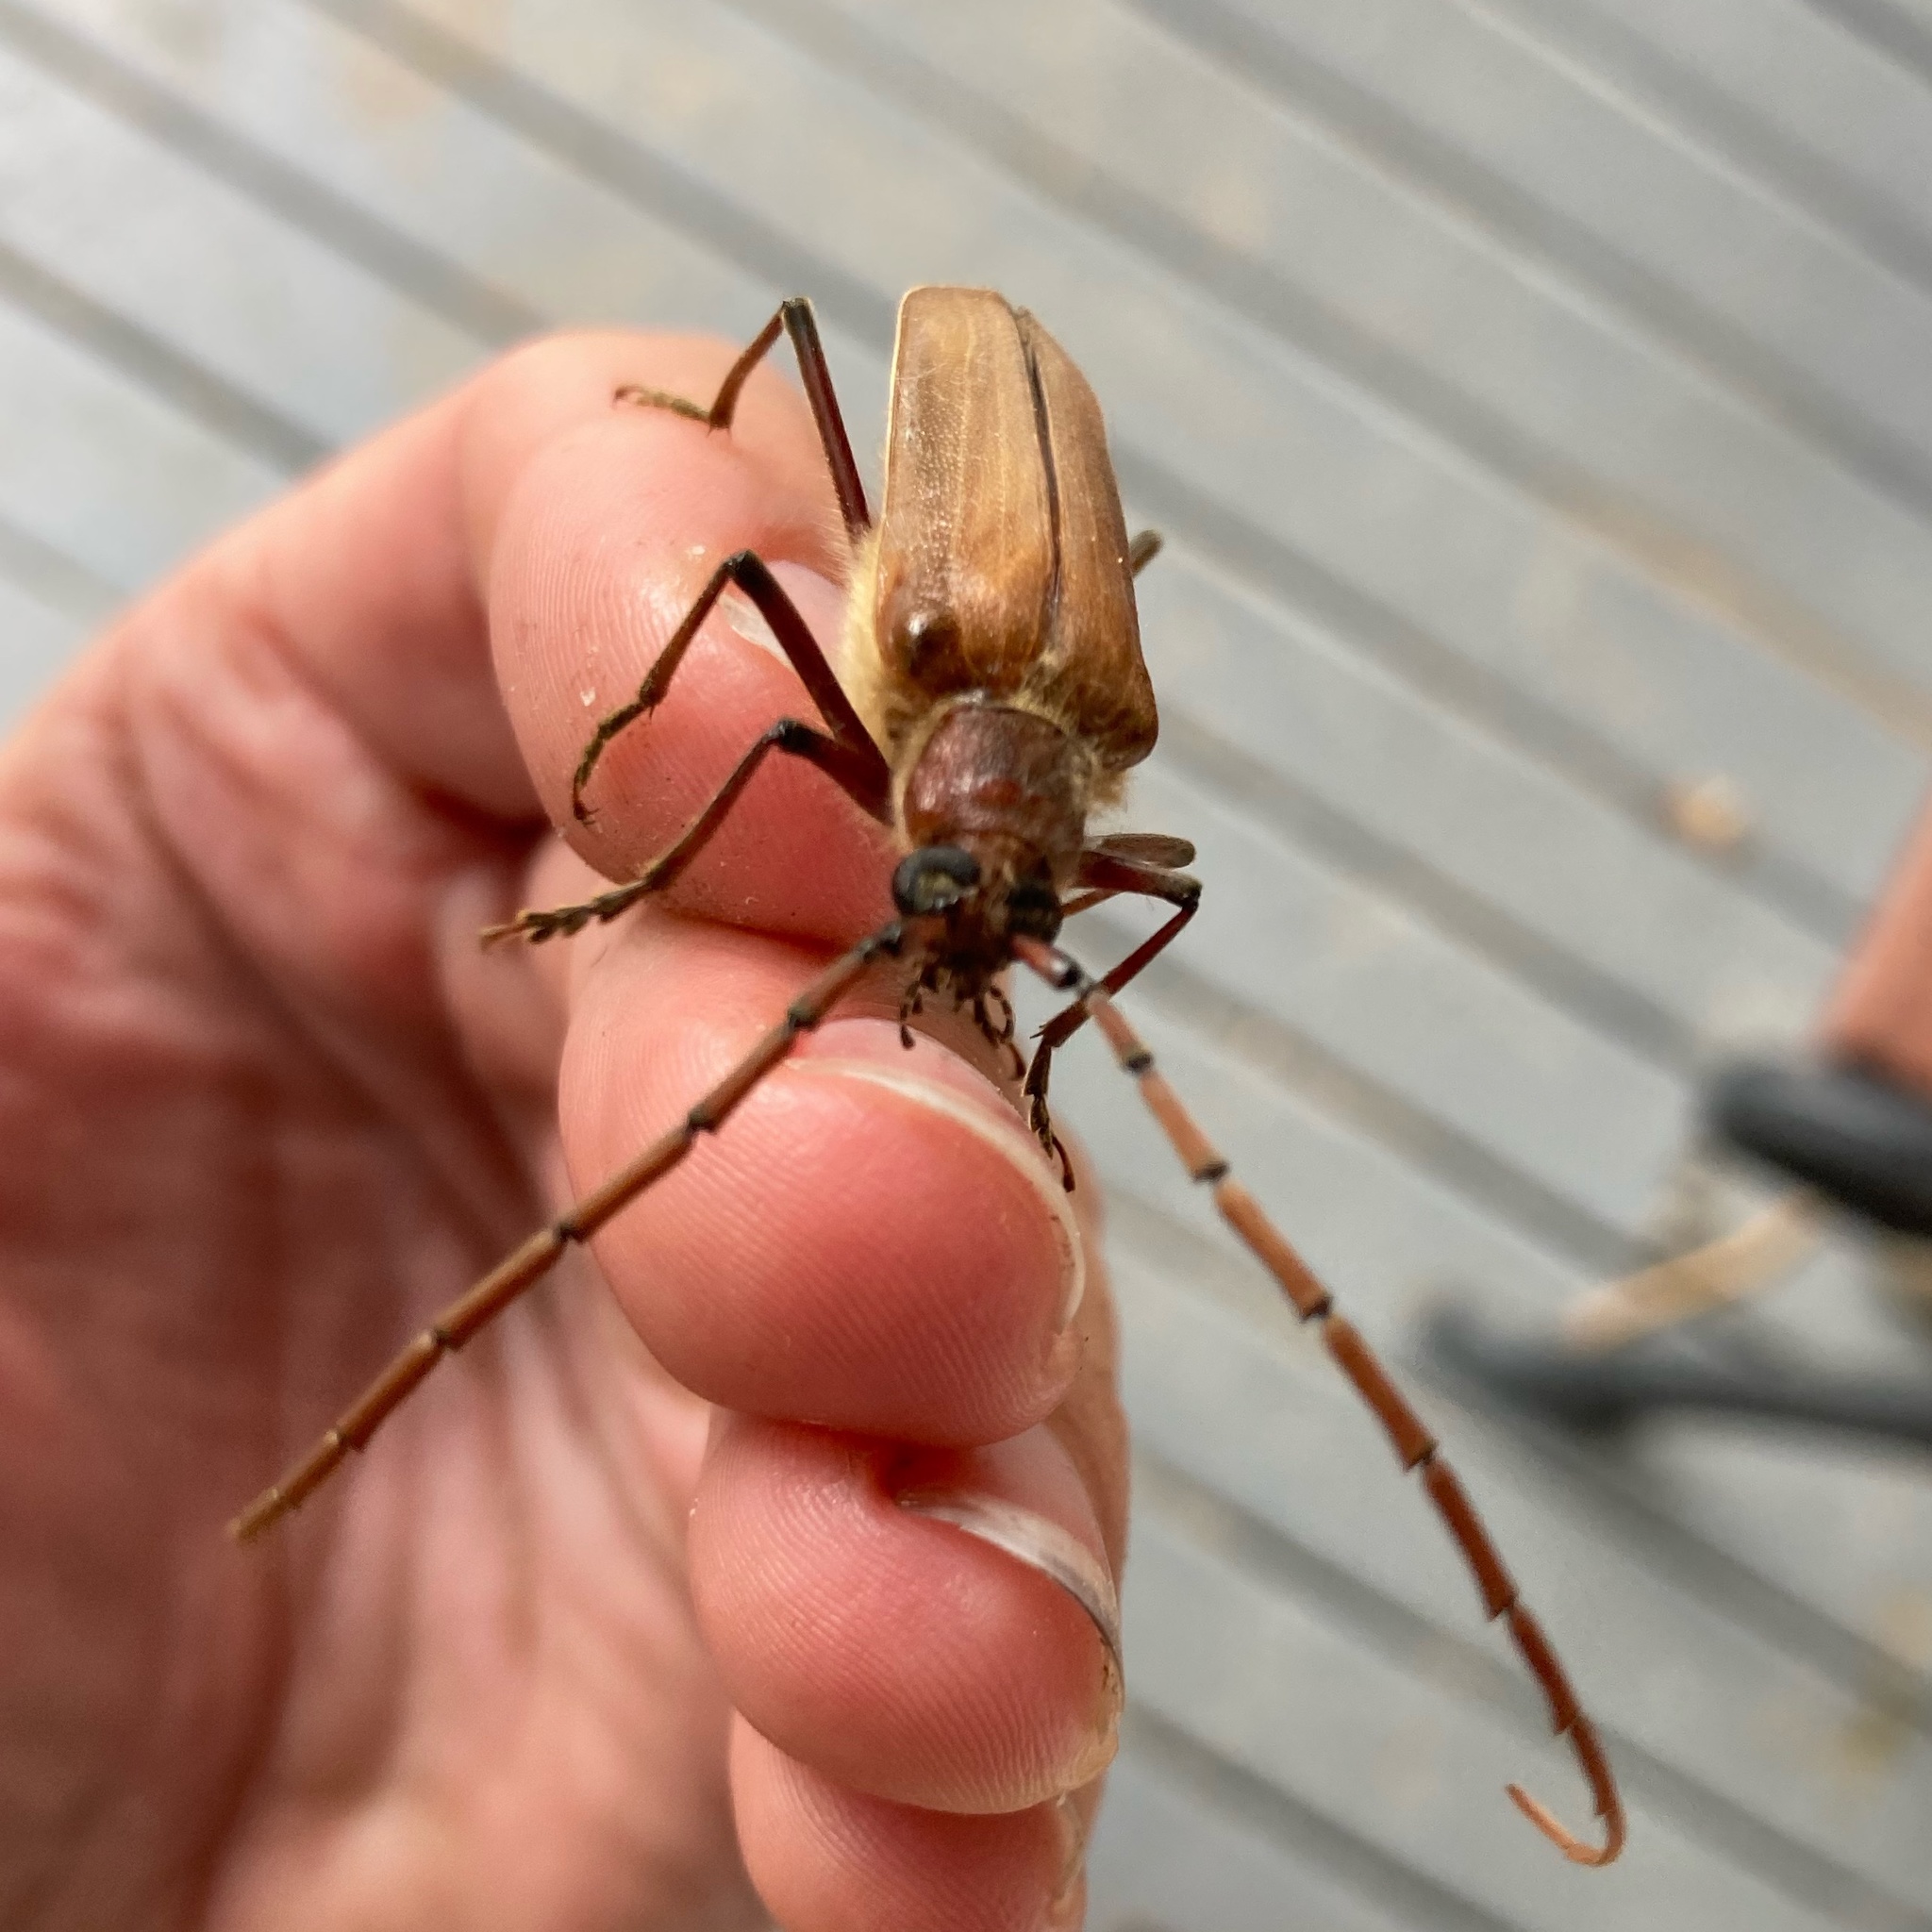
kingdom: Animalia
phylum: Arthropoda
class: Insecta
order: Coleoptera
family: Cerambycidae
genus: Ochrocydus
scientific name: Ochrocydus huttoni
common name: Kanuka longhorn
